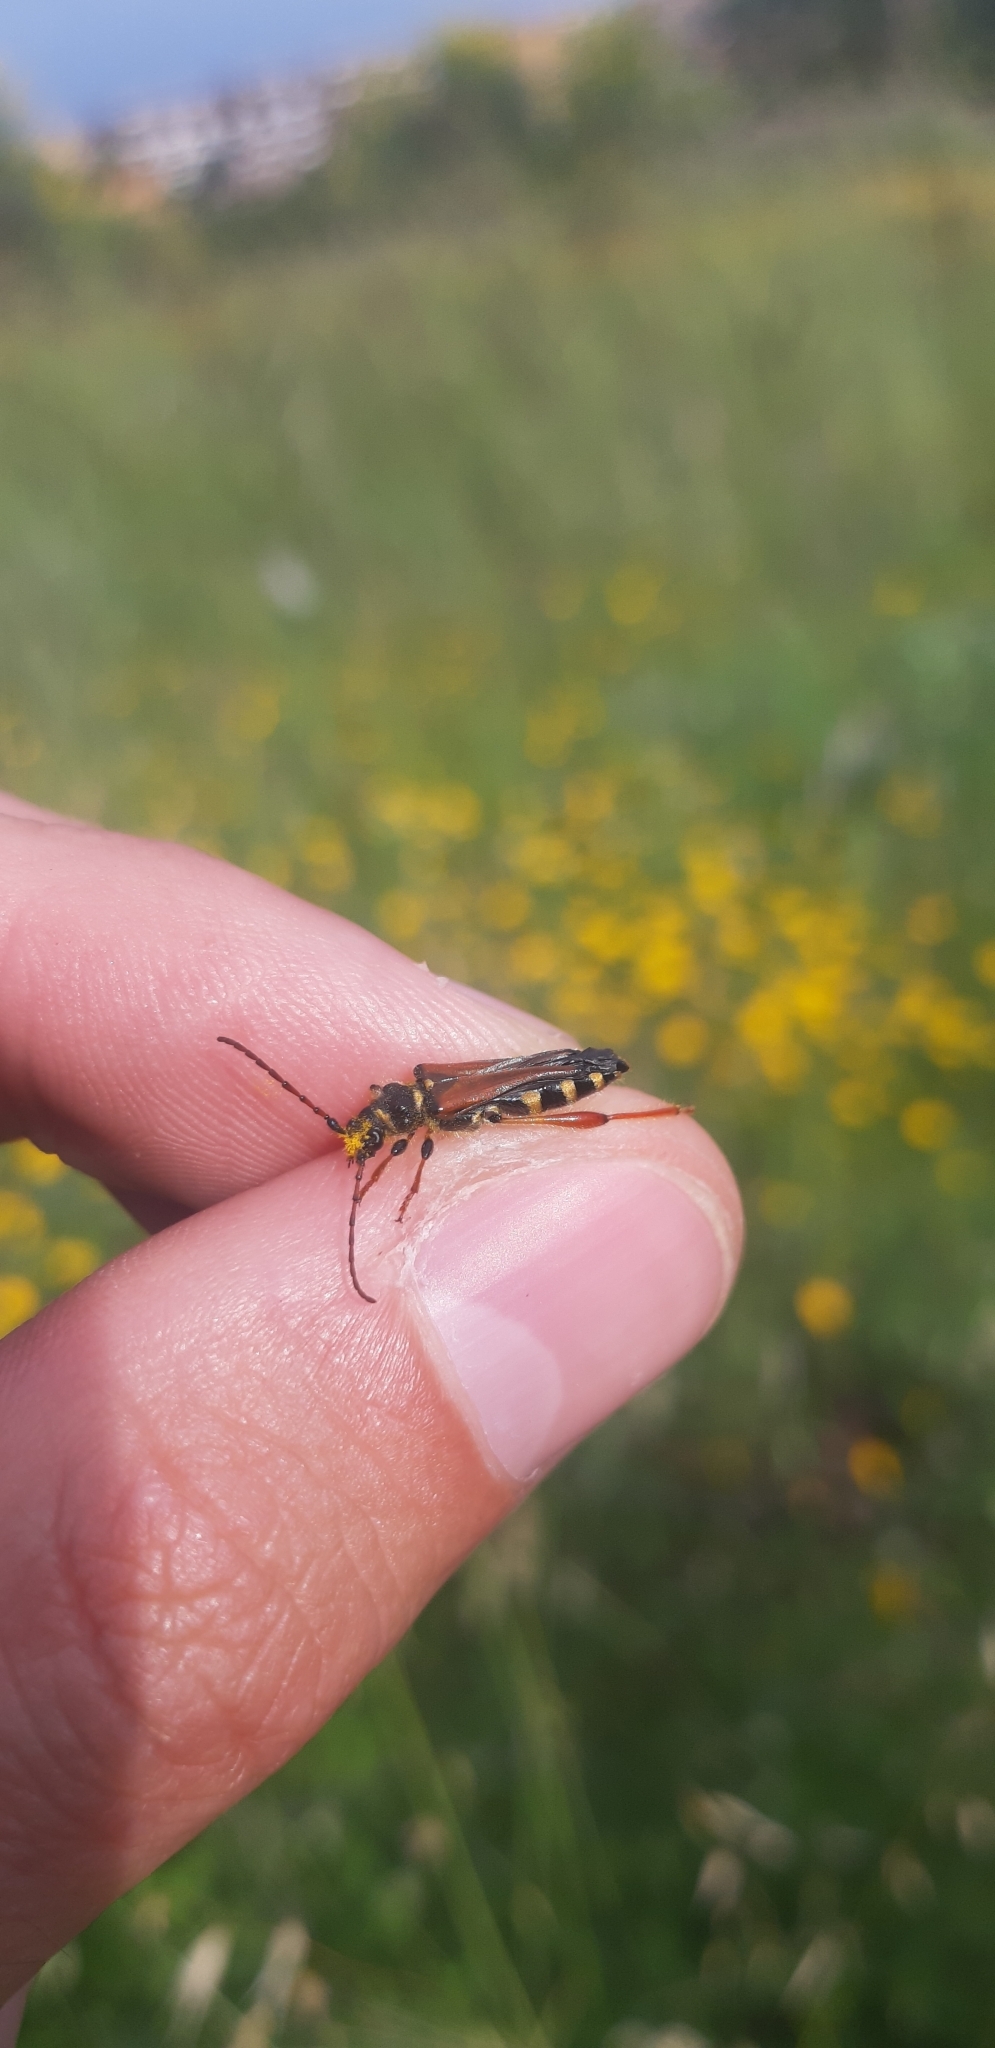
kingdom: Animalia
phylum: Arthropoda
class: Insecta
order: Coleoptera
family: Cerambycidae
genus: Stenopterus
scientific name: Stenopterus rufus
